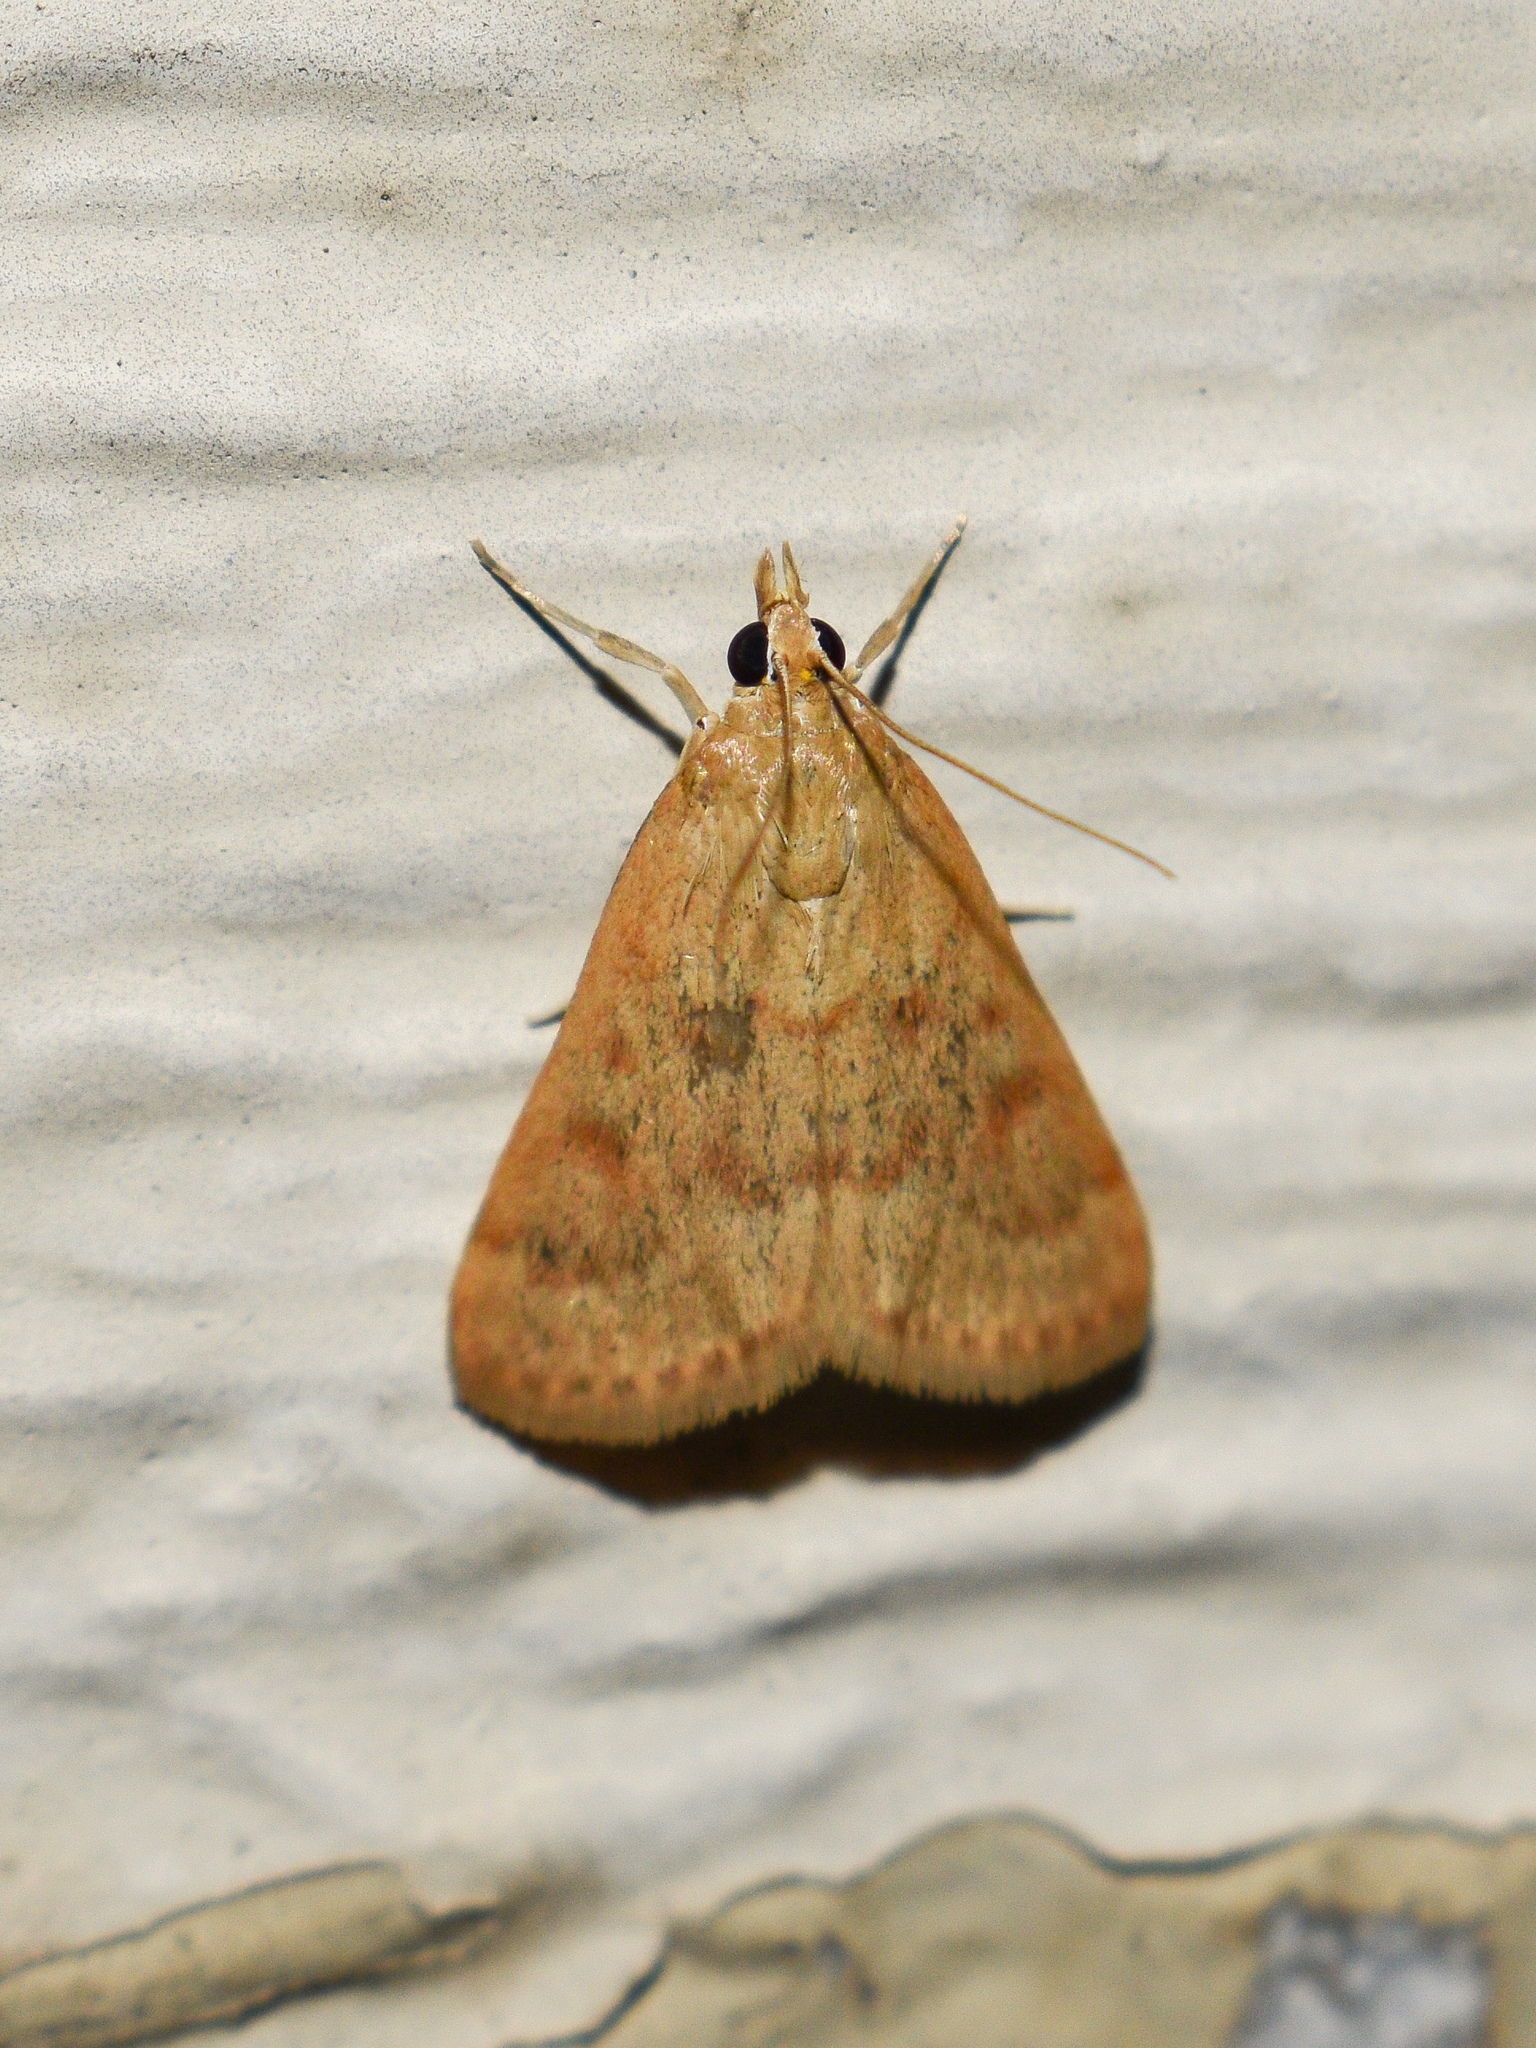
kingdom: Animalia
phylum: Arthropoda
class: Insecta
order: Lepidoptera
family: Crambidae
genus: Achyra
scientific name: Achyra rantalis
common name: Garden webworm
